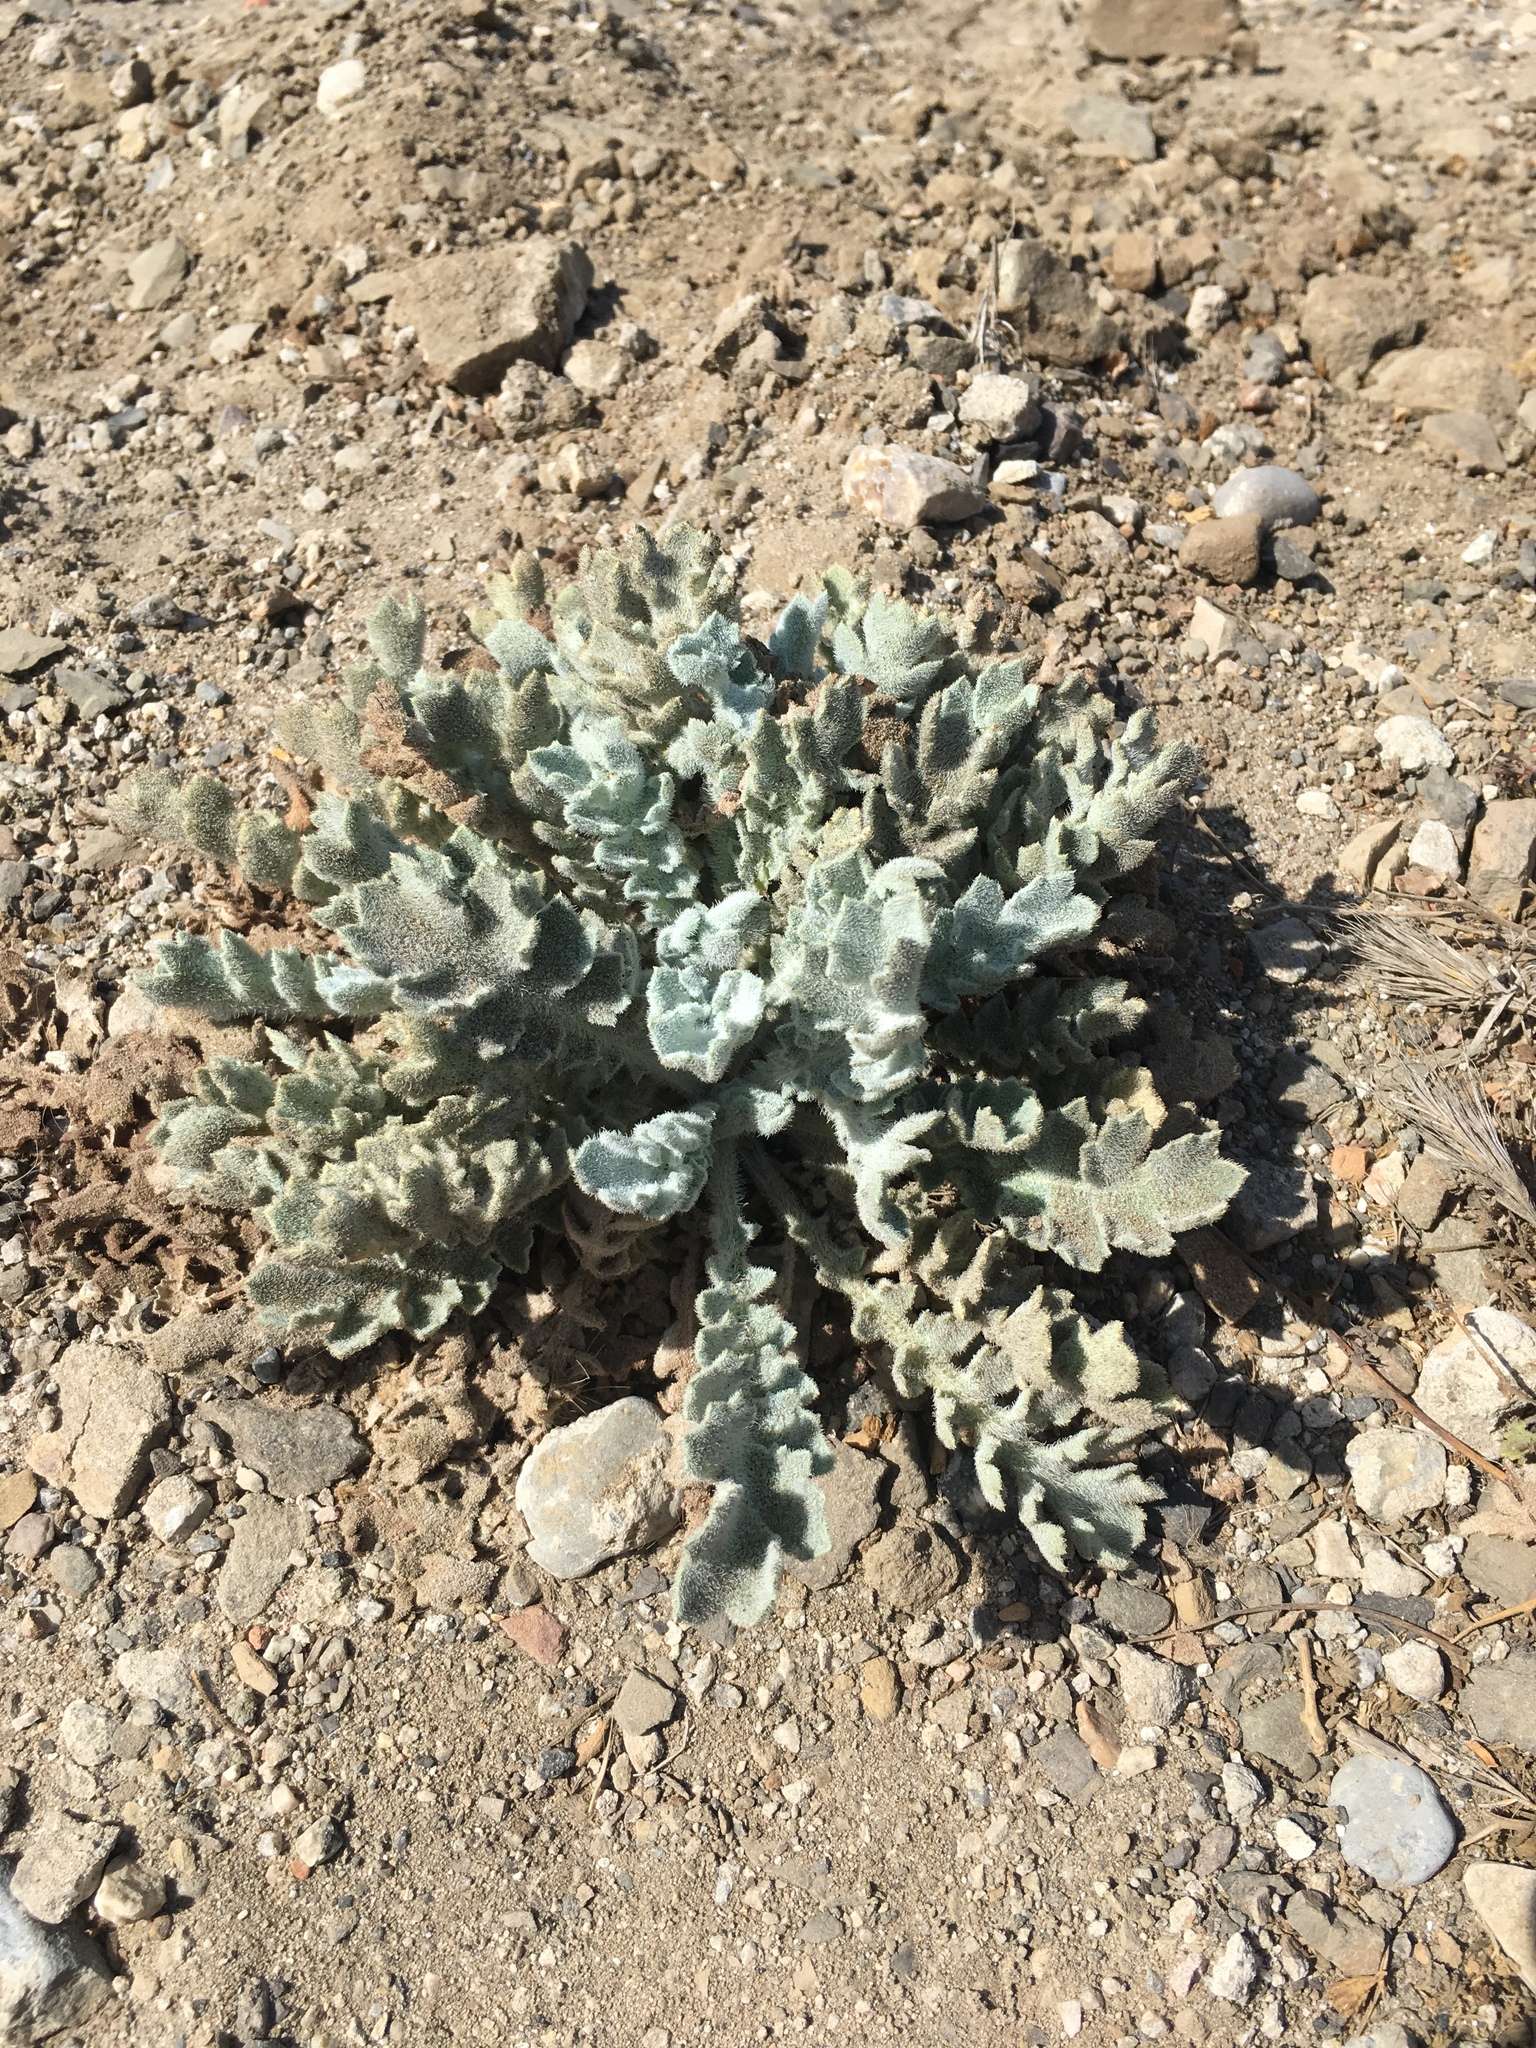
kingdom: Plantae
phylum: Tracheophyta
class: Magnoliopsida
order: Ranunculales
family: Papaveraceae
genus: Glaucium
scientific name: Glaucium flavum
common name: Yellow horned-poppy
